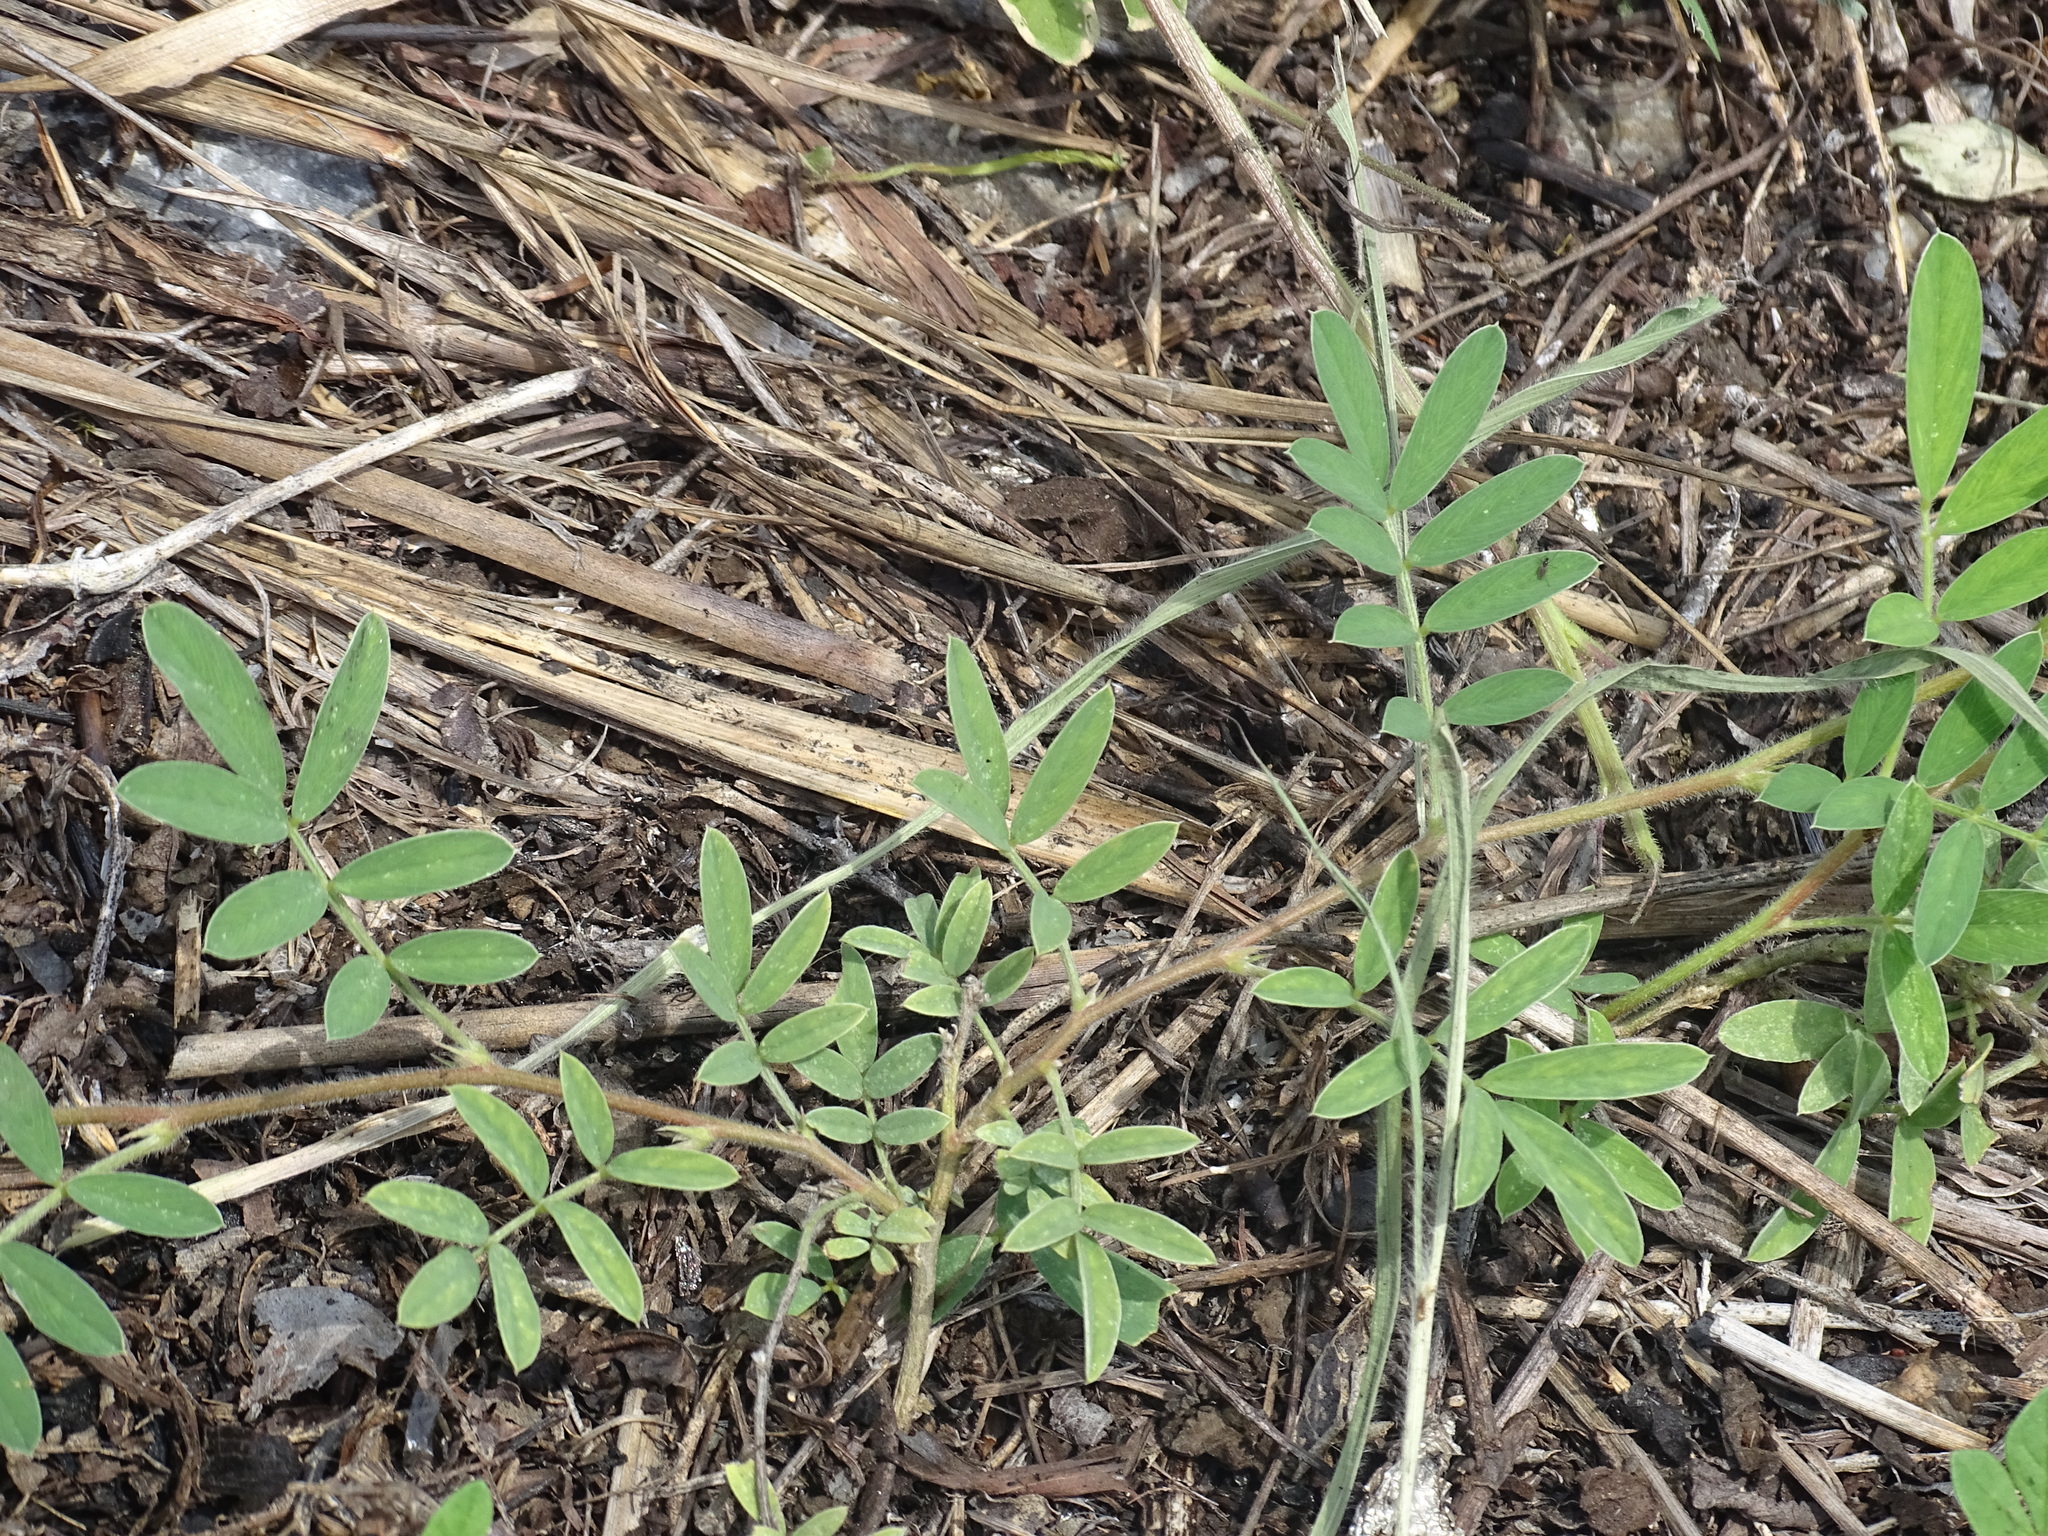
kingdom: Plantae
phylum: Tracheophyta
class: Magnoliopsida
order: Fabales
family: Fabaceae
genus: Tephrosia
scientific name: Tephrosia cinerea
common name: Ashen hoarypea
